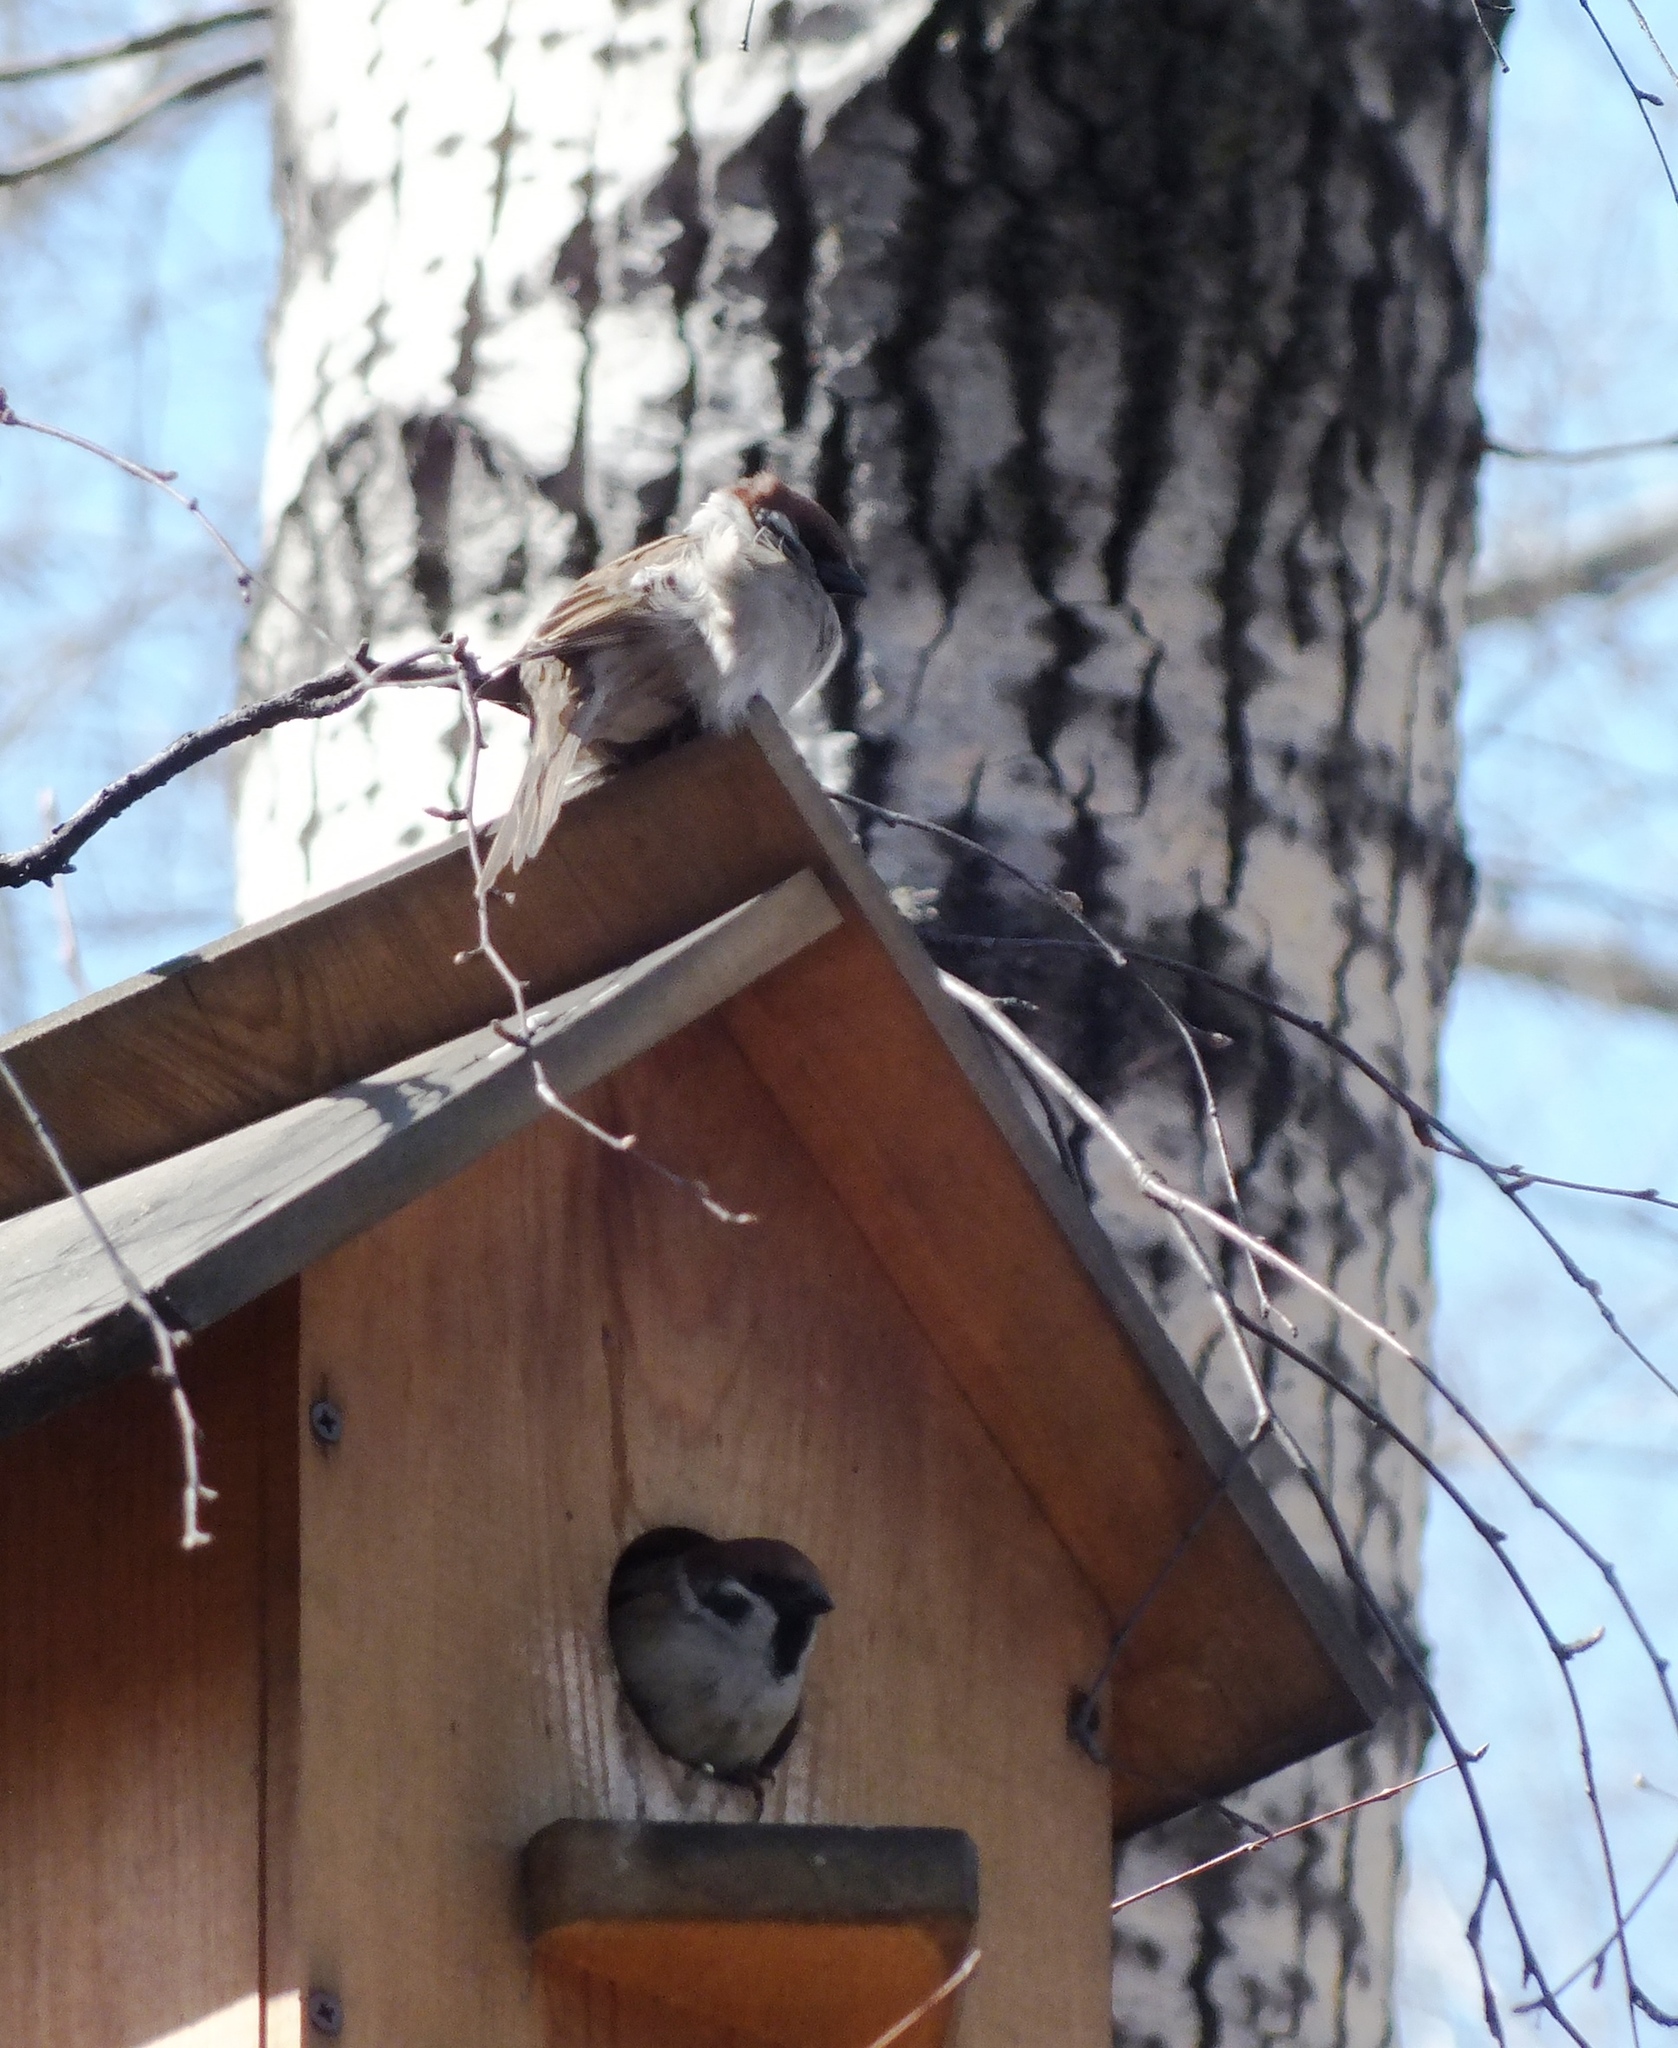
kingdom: Animalia
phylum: Chordata
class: Aves
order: Passeriformes
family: Passeridae
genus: Passer
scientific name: Passer montanus
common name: Eurasian tree sparrow
